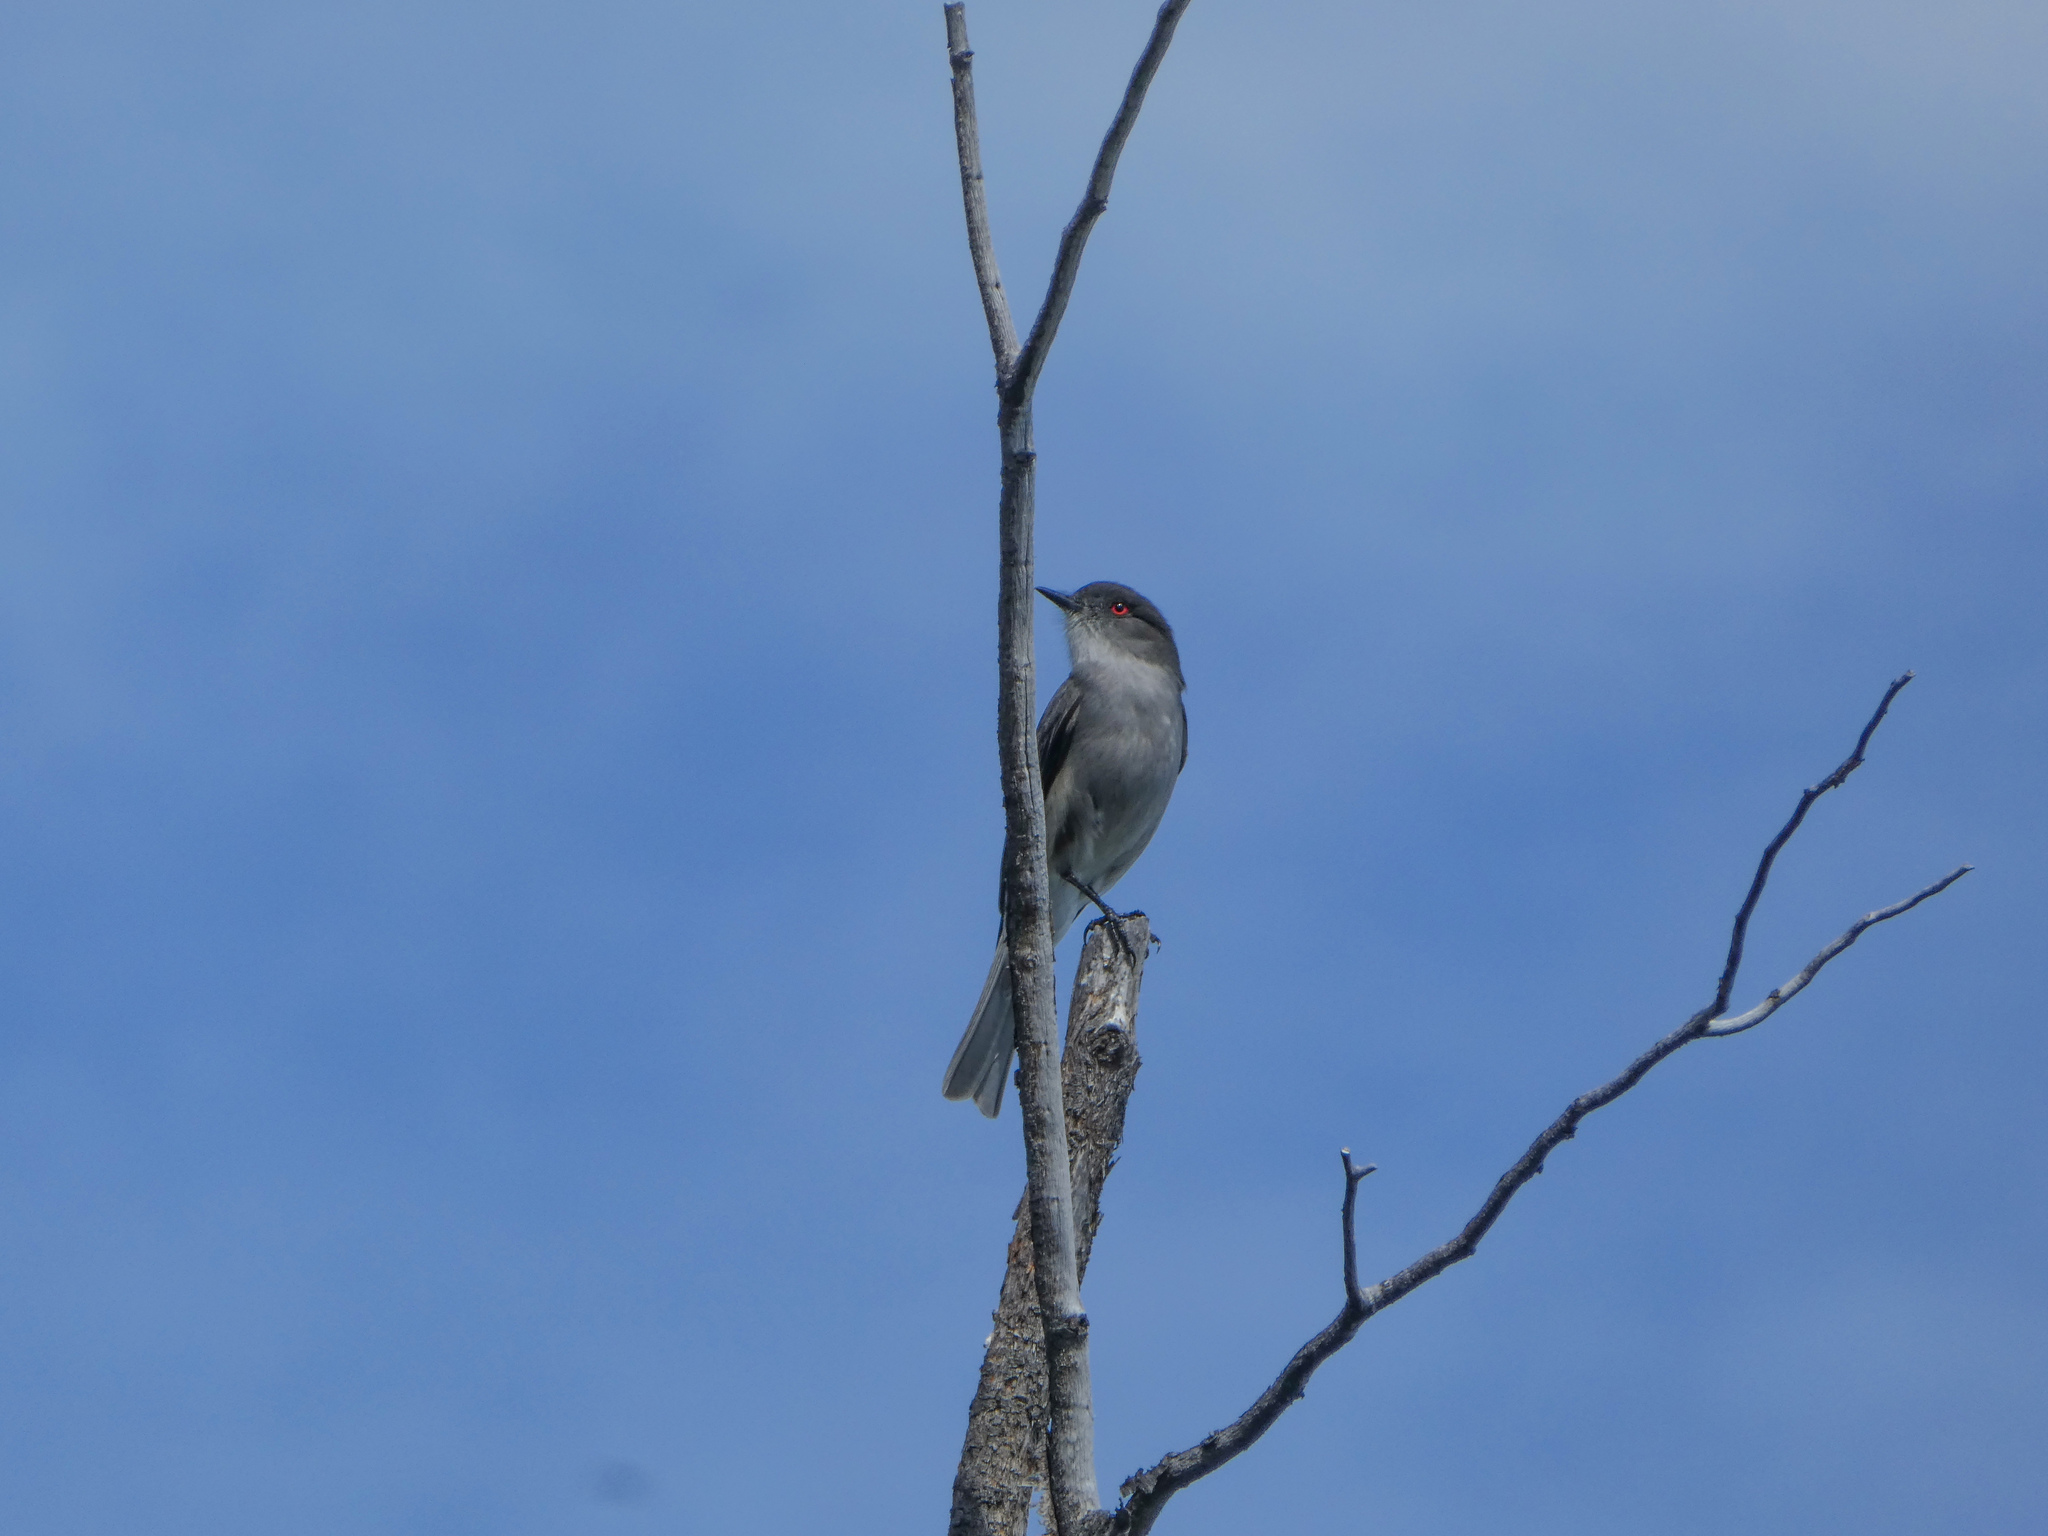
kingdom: Animalia
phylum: Chordata
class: Aves
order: Passeriformes
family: Tyrannidae
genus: Xolmis
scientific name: Xolmis pyrope
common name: Fire-eyed diucon
